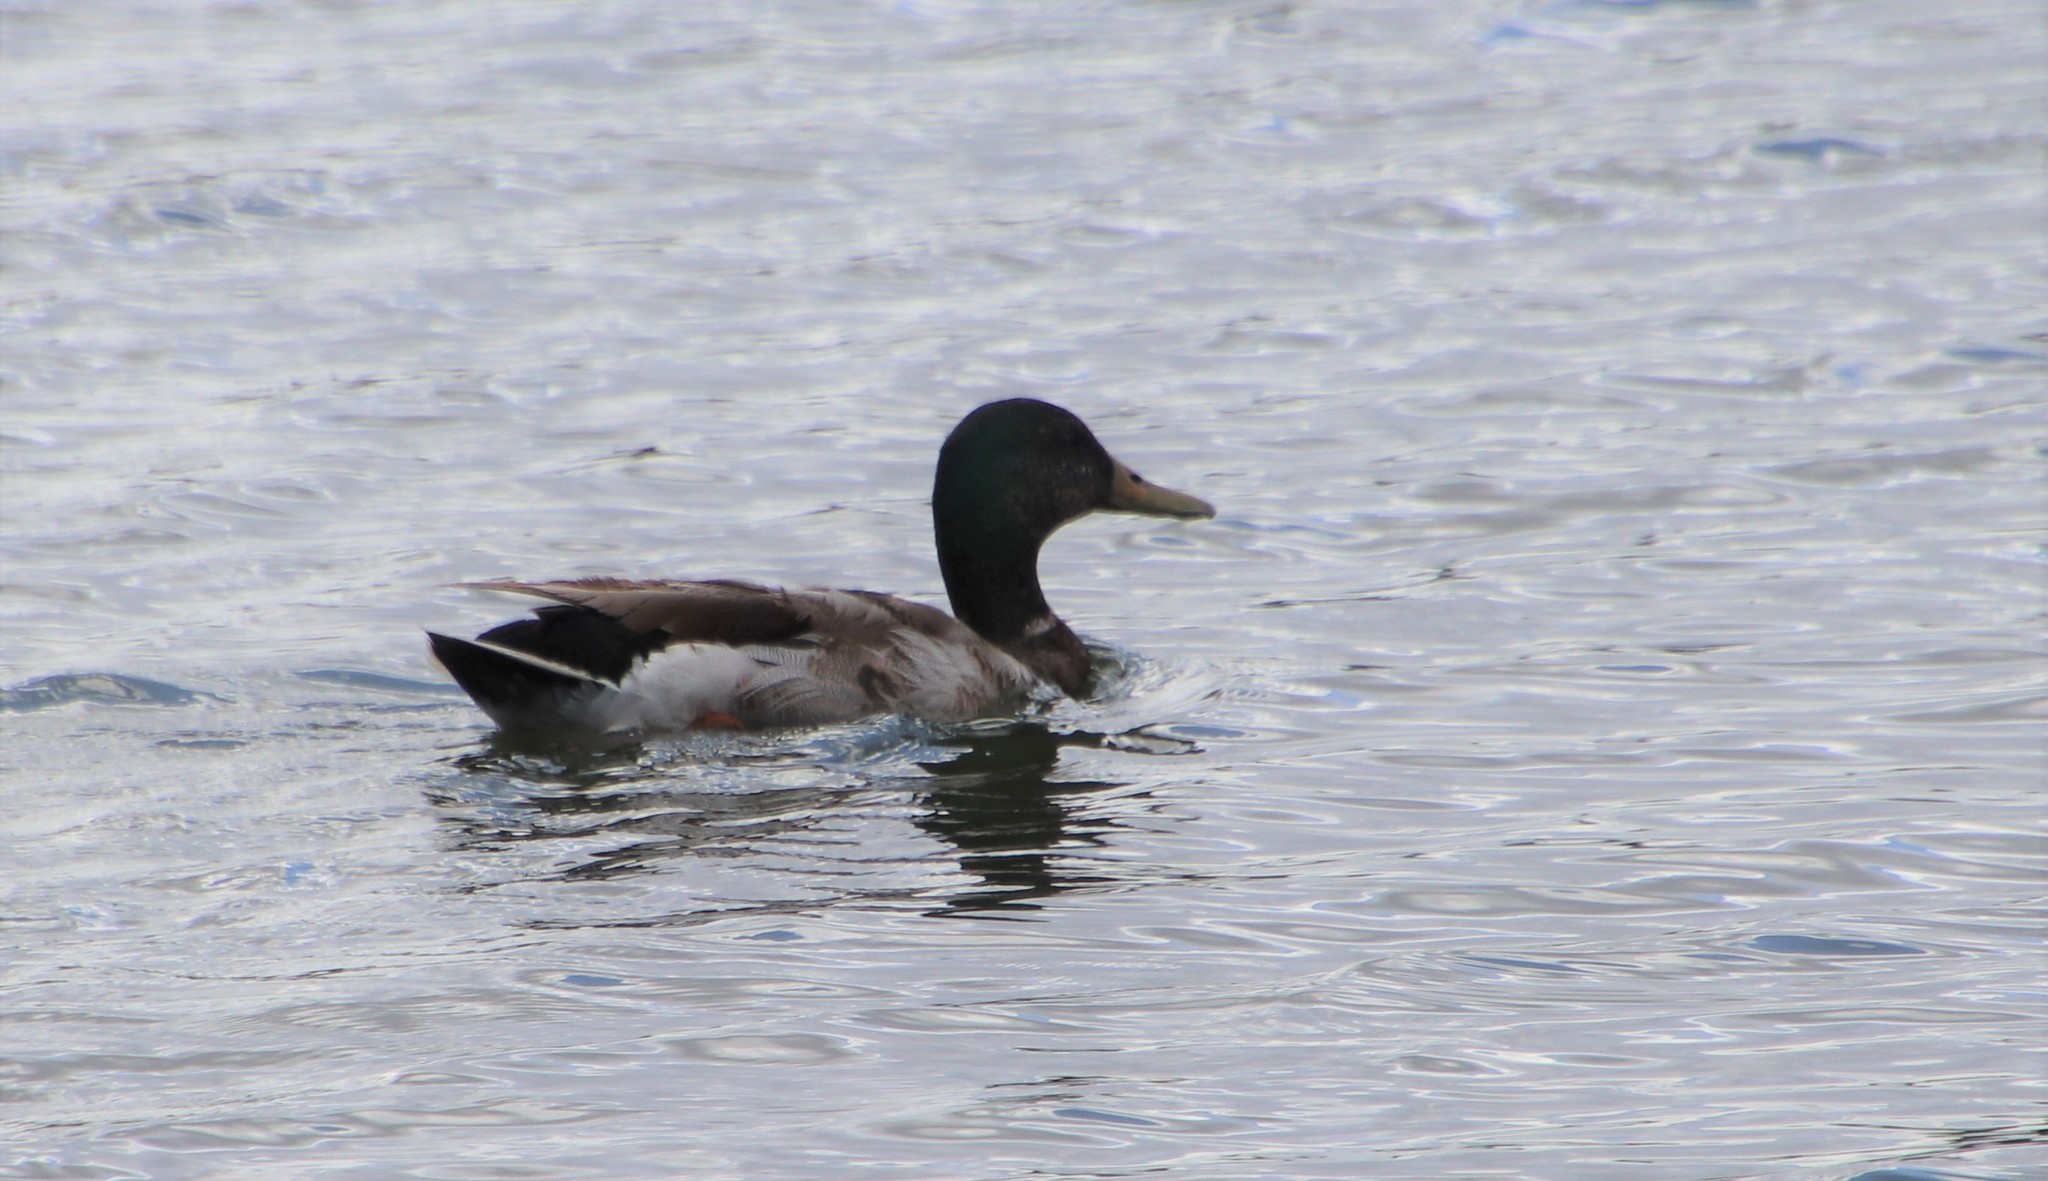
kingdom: Animalia
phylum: Chordata
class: Aves
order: Anseriformes
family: Anatidae
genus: Anas
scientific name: Anas platyrhynchos
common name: Mallard
